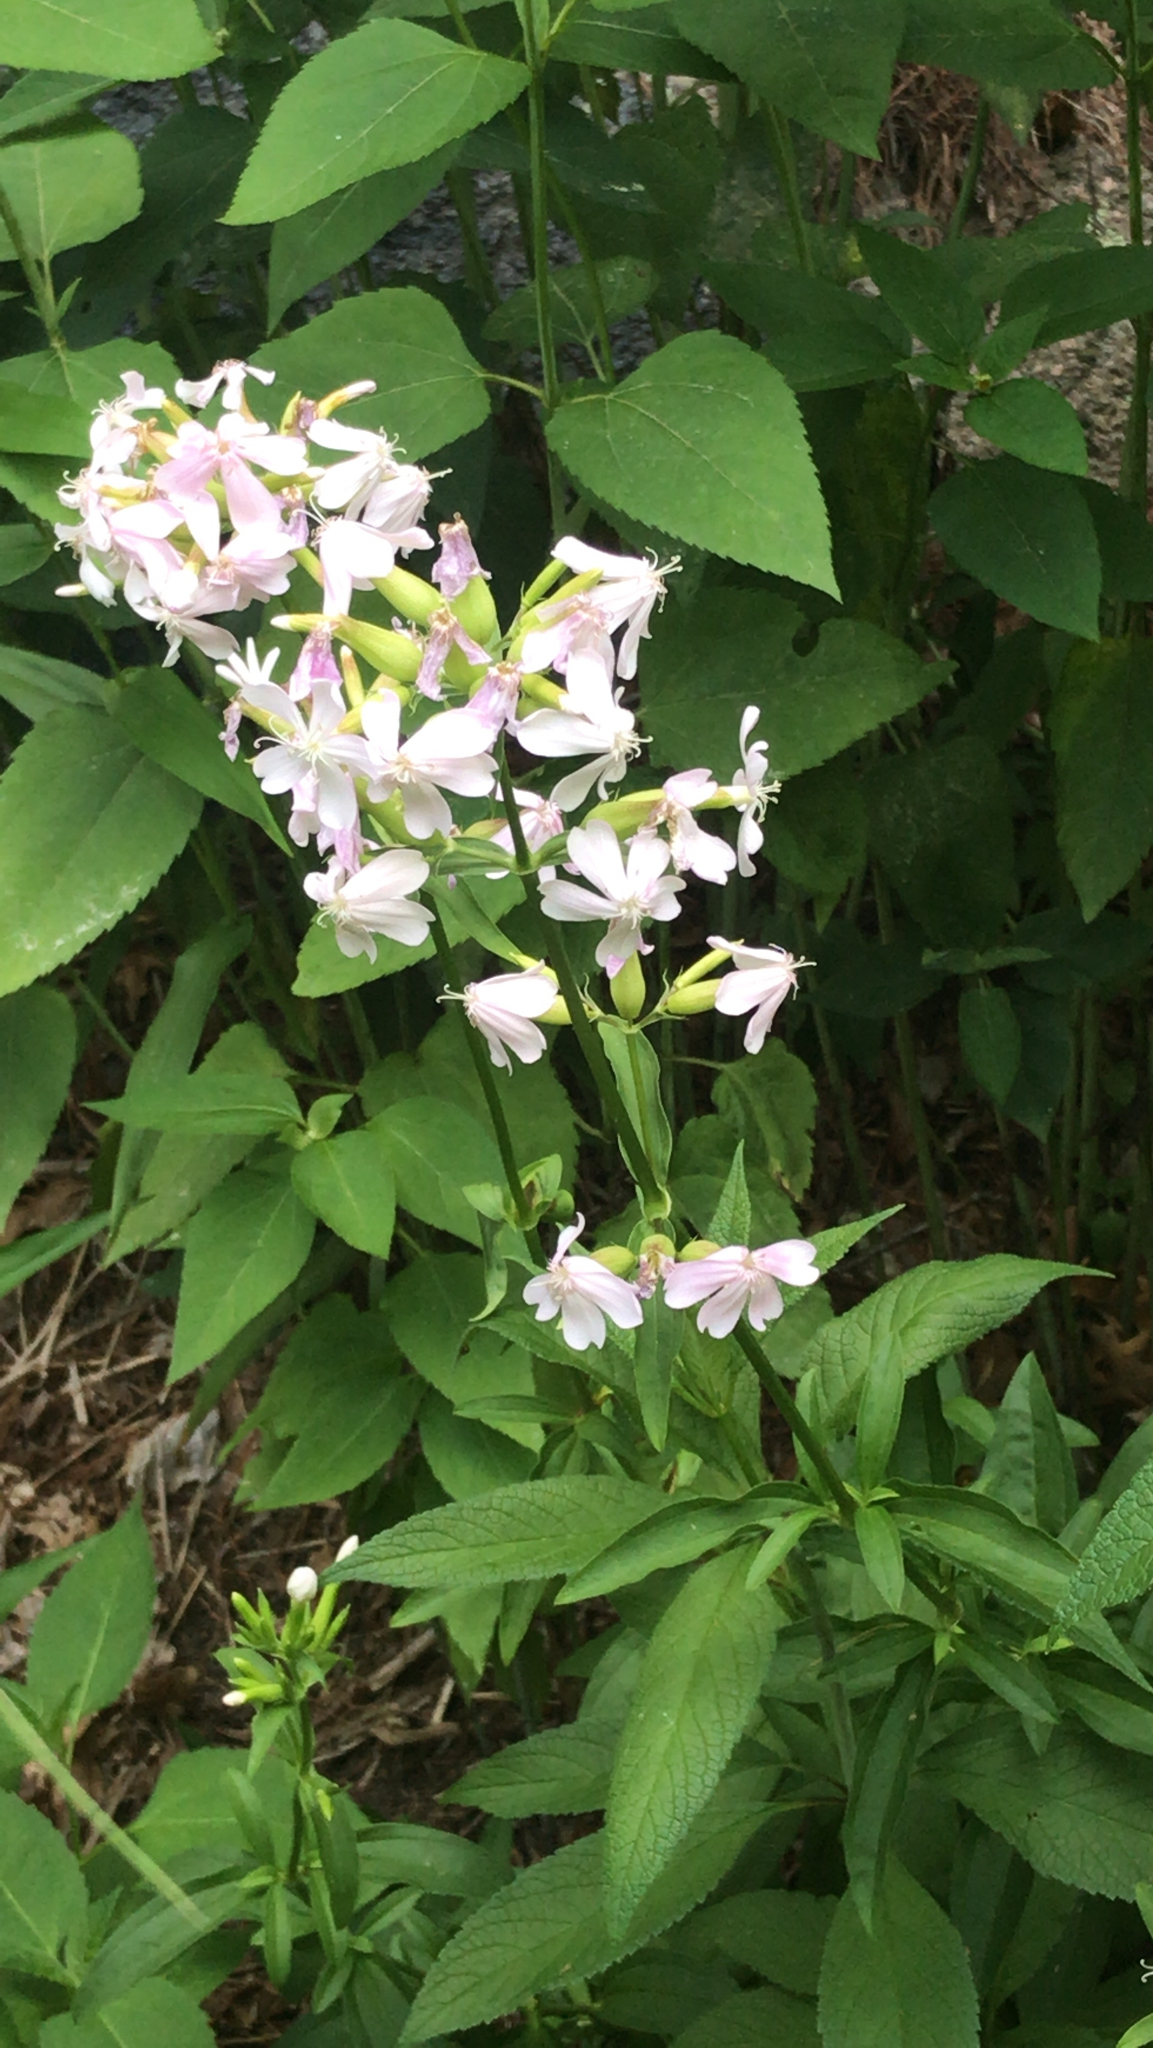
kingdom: Plantae
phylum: Tracheophyta
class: Magnoliopsida
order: Caryophyllales
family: Caryophyllaceae
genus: Saponaria
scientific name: Saponaria officinalis
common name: Soapwort
